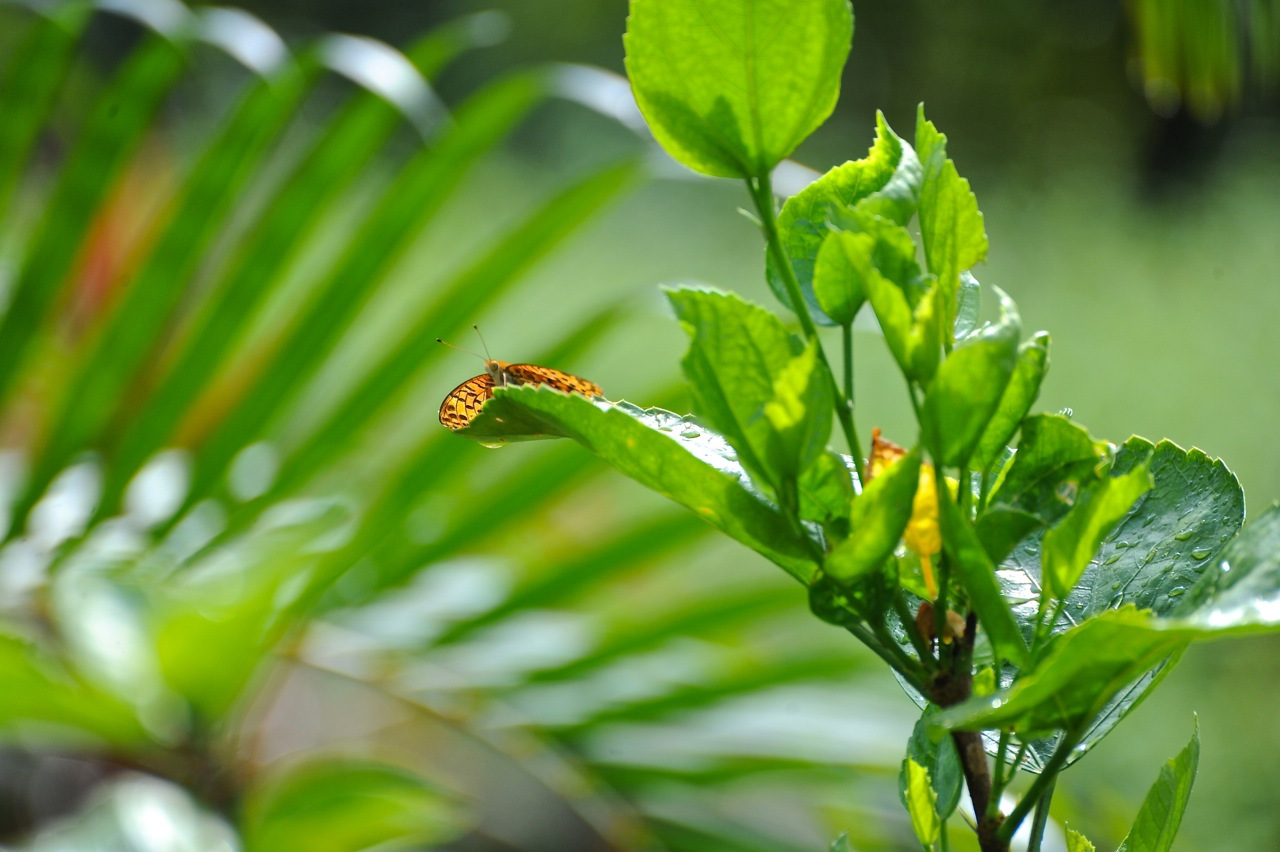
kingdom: Animalia
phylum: Arthropoda
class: Insecta
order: Lepidoptera
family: Nymphalidae
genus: Argynnis
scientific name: Argynnis hyperbius
